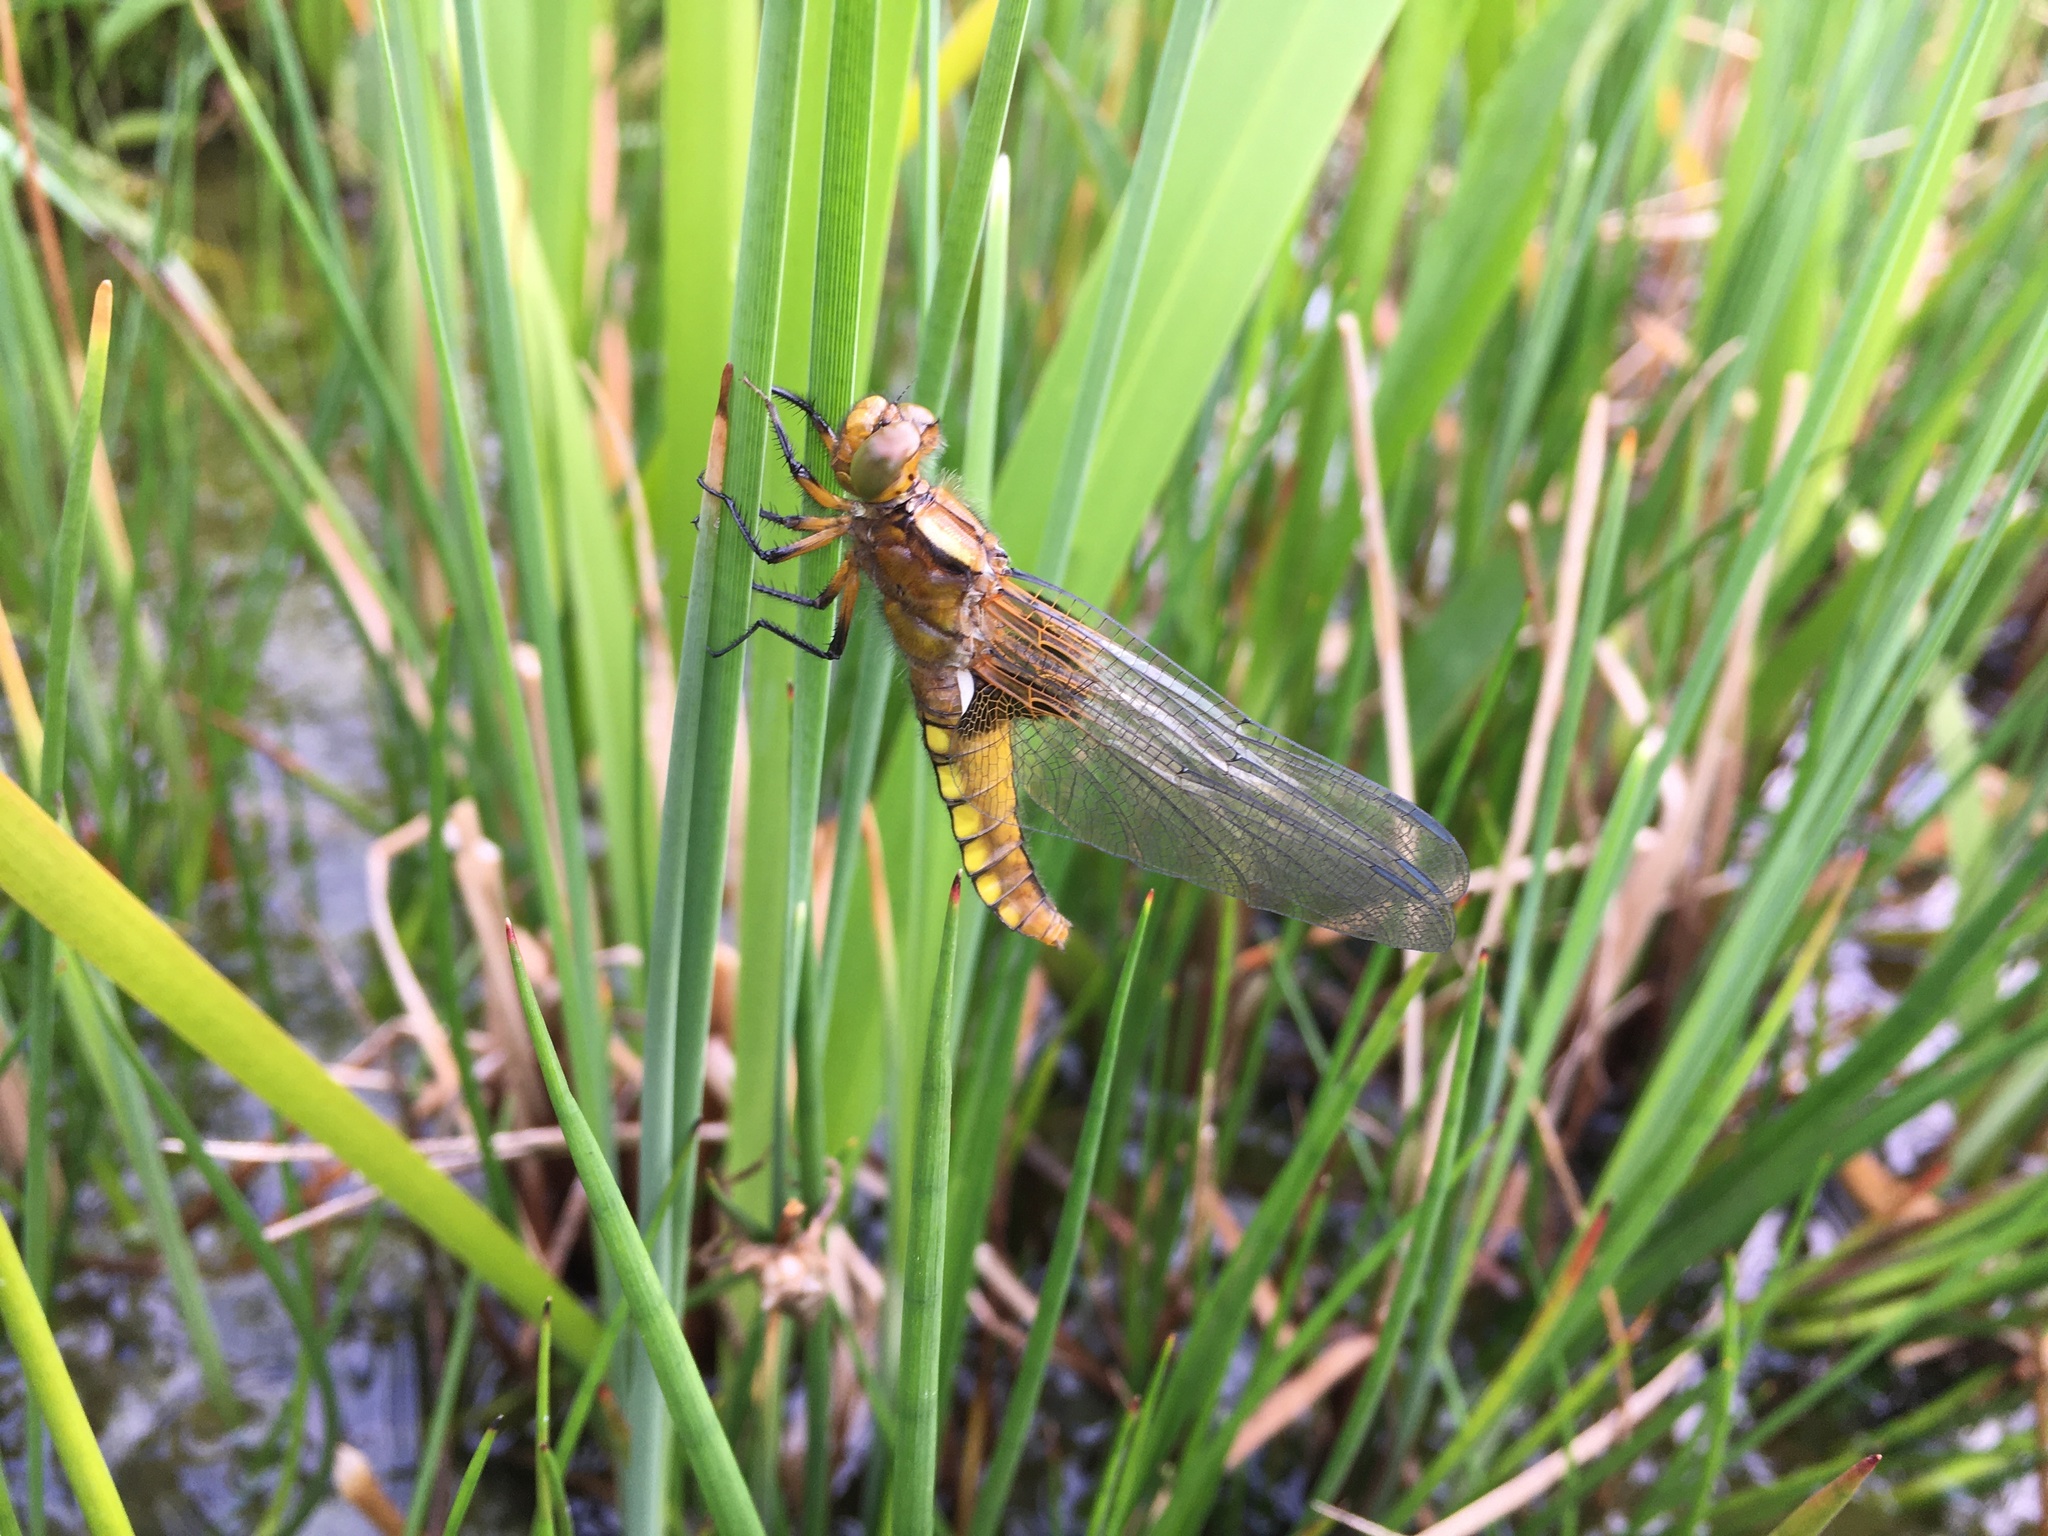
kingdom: Animalia
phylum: Arthropoda
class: Insecta
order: Odonata
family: Libellulidae
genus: Libellula
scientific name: Libellula depressa
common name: Broad-bodied chaser
